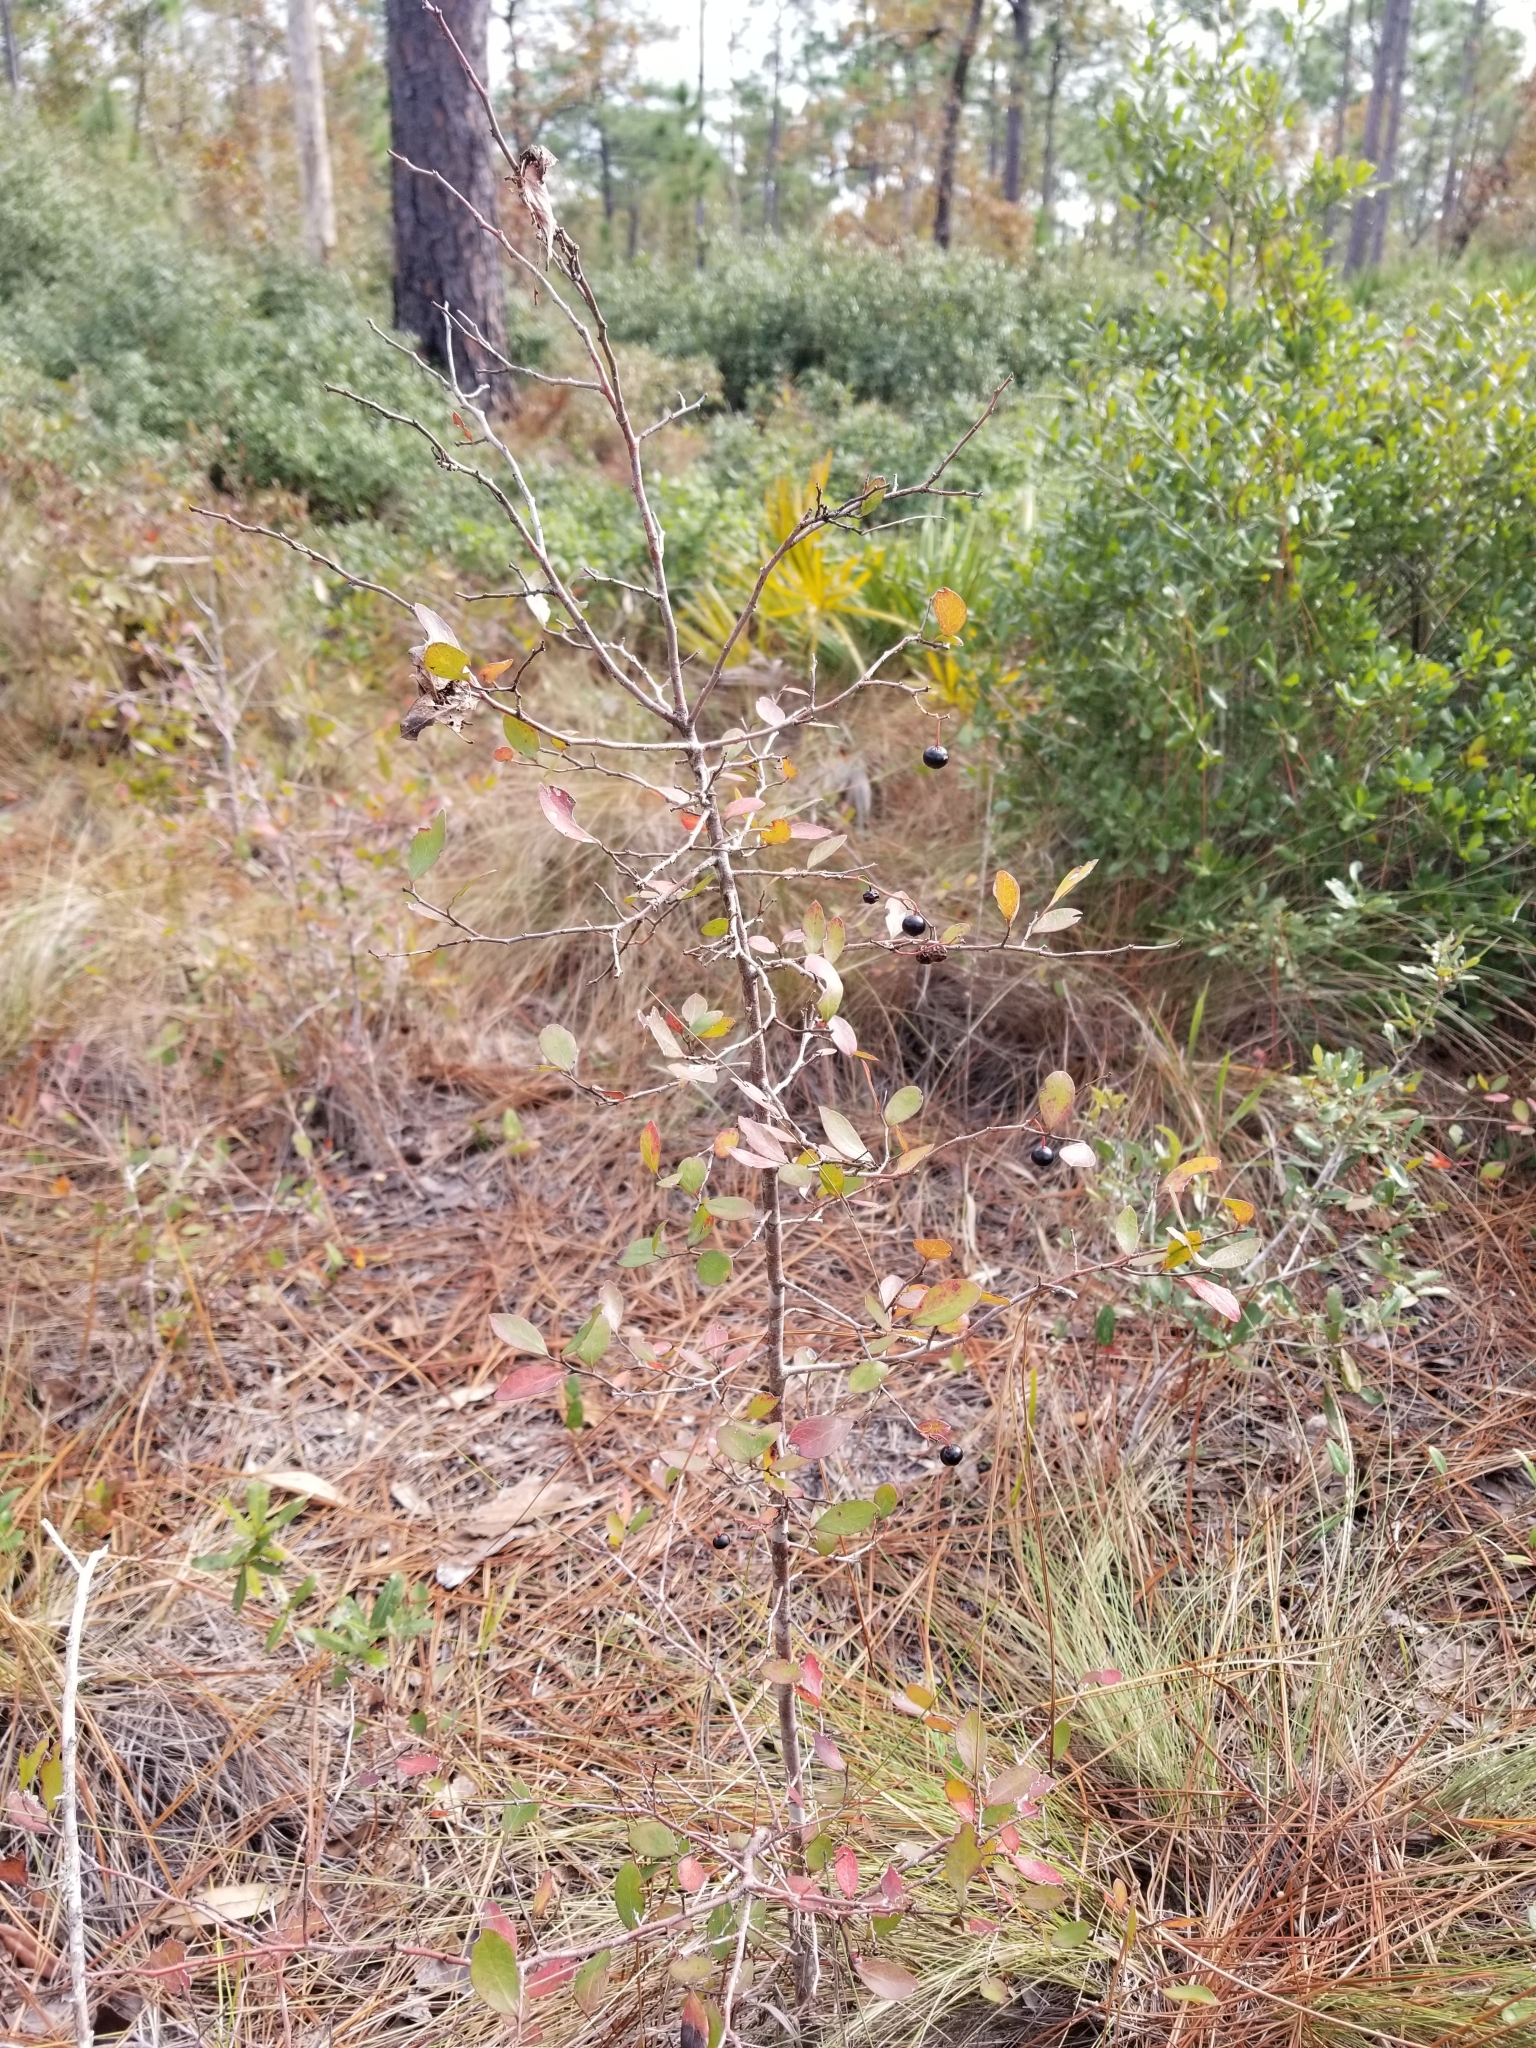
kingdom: Plantae
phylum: Tracheophyta
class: Magnoliopsida
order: Ericales
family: Ericaceae
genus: Vaccinium
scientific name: Vaccinium arboreum
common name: Farkleberry
